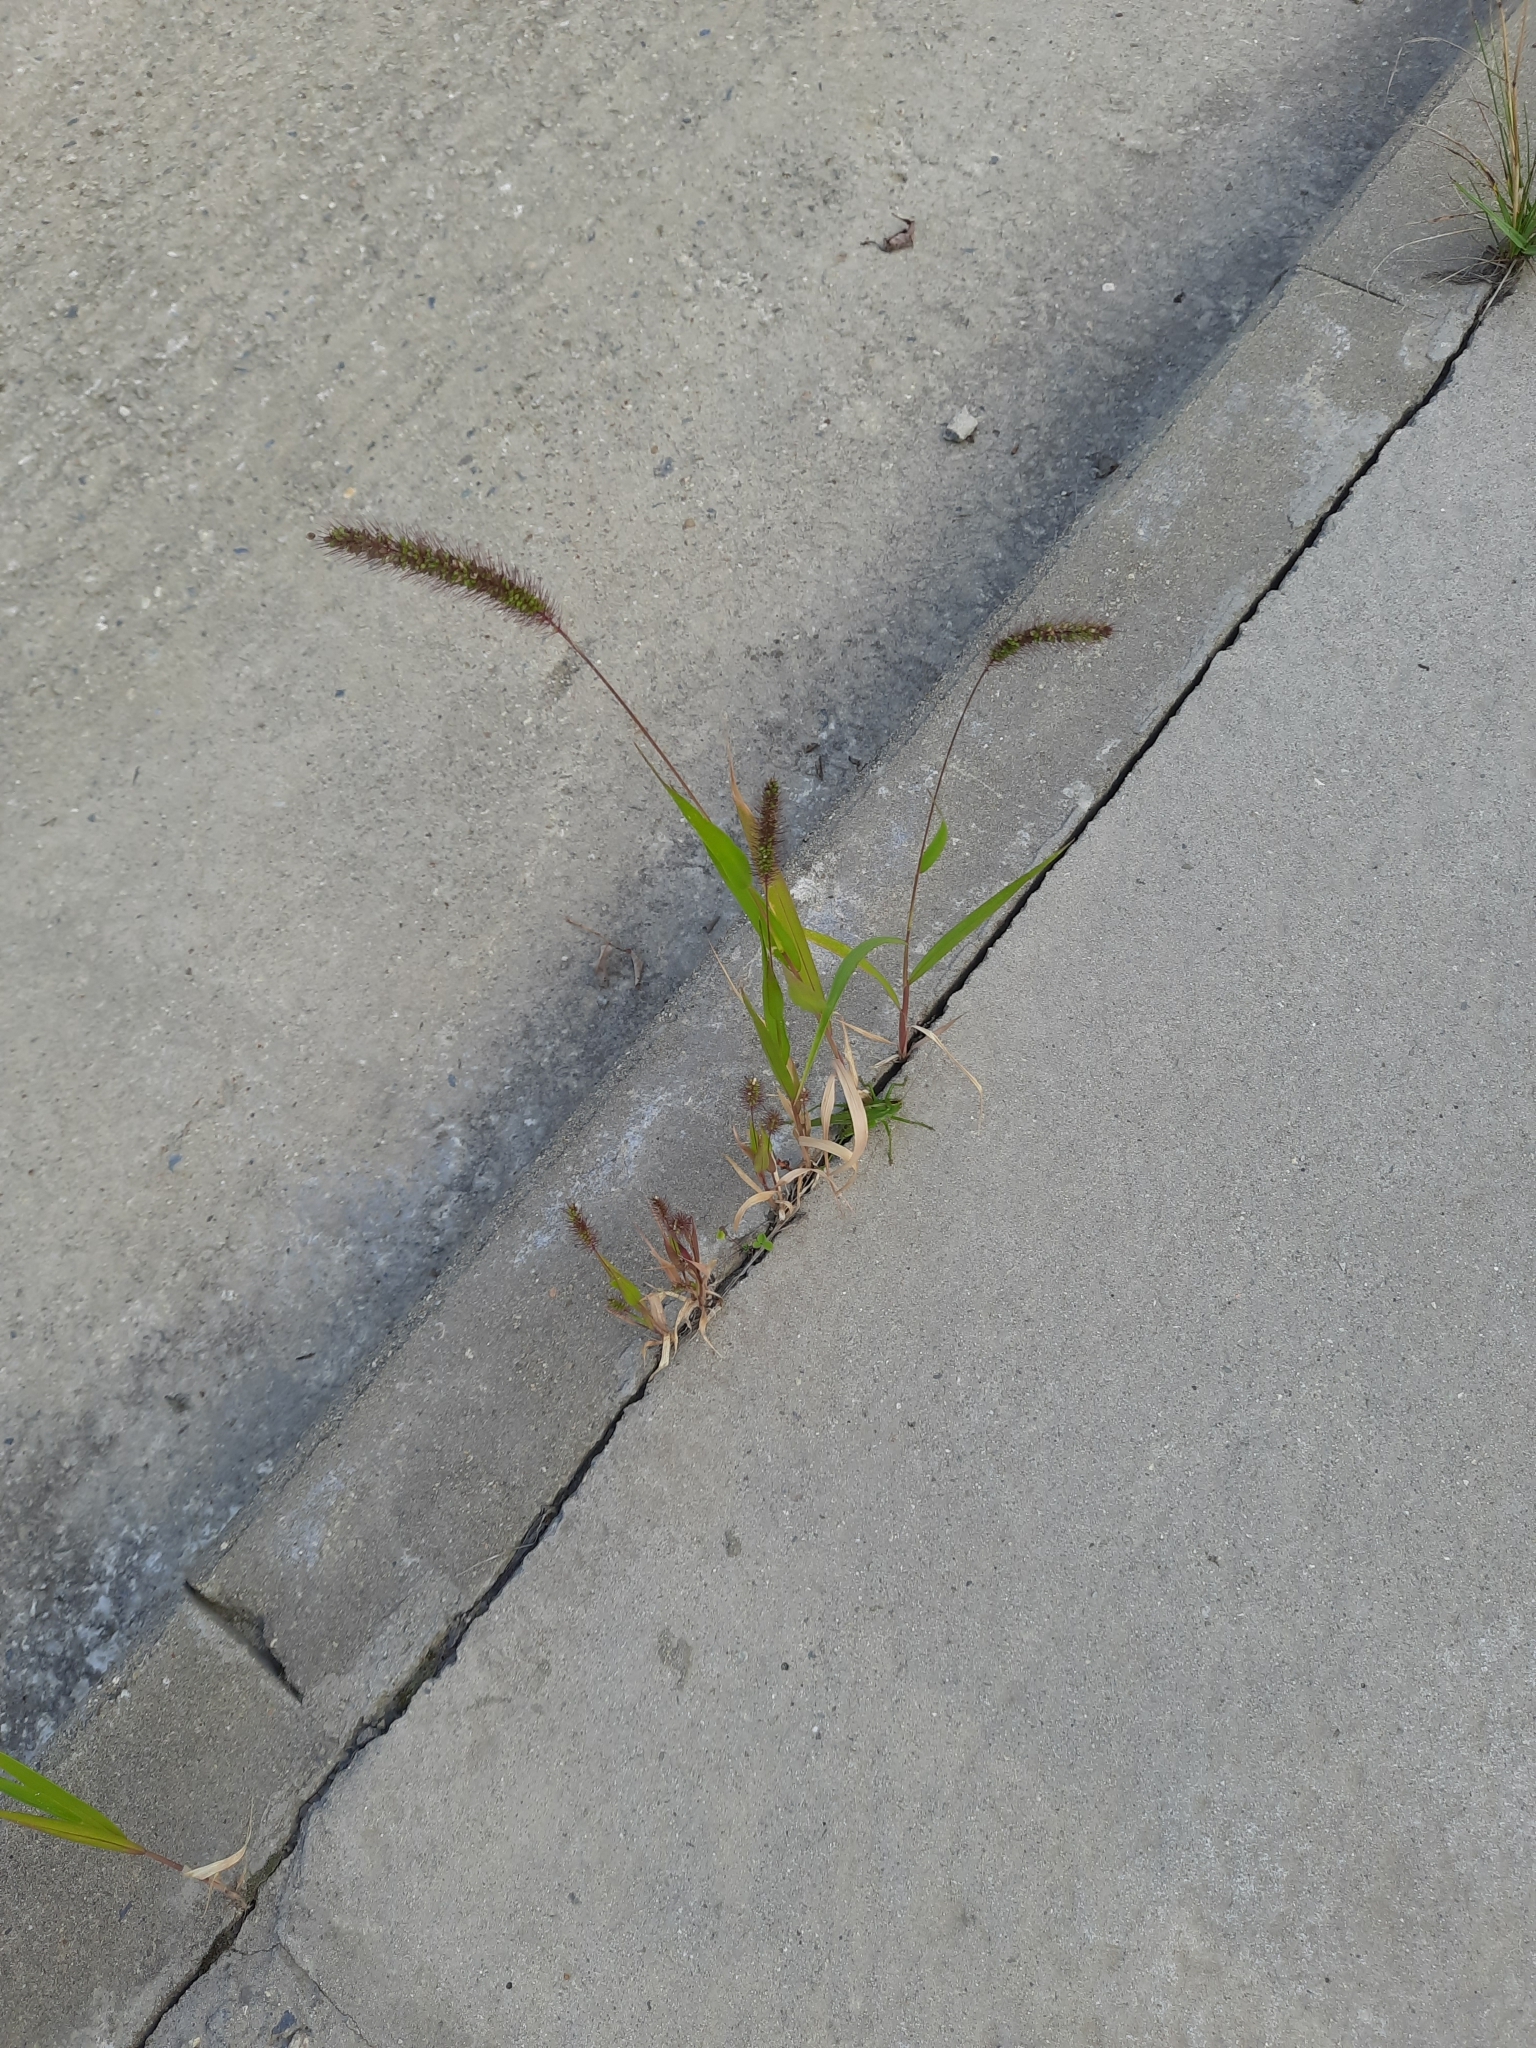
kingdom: Plantae
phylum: Tracheophyta
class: Liliopsida
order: Poales
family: Poaceae
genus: Setaria
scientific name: Setaria viridis
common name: Green bristlegrass
